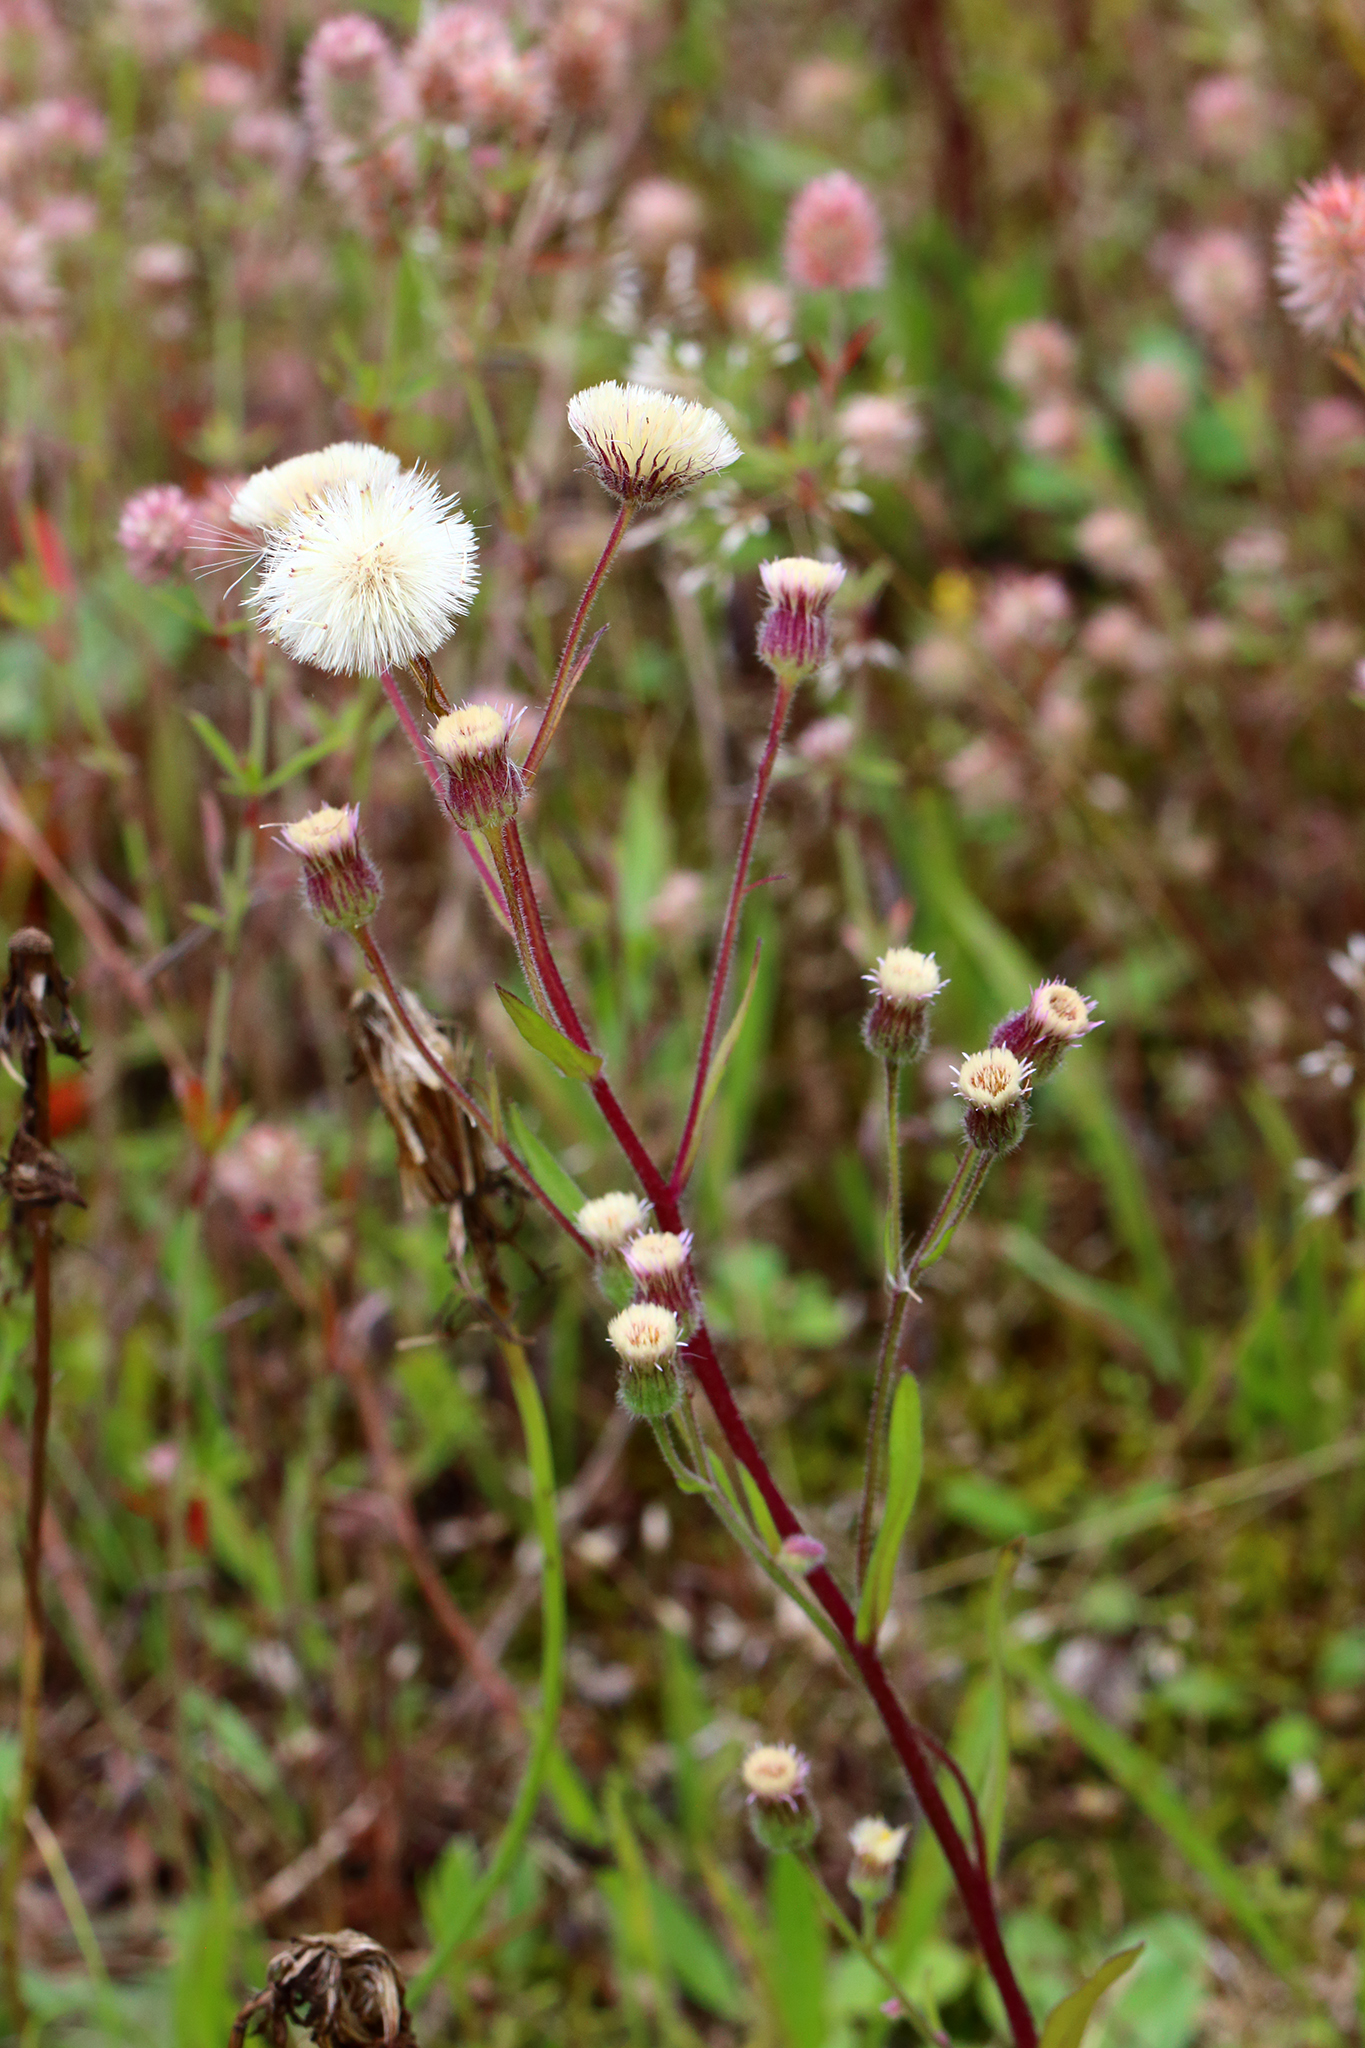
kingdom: Plantae
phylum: Tracheophyta
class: Magnoliopsida
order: Asterales
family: Asteraceae
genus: Erigeron
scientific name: Erigeron acris
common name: Blue fleabane
